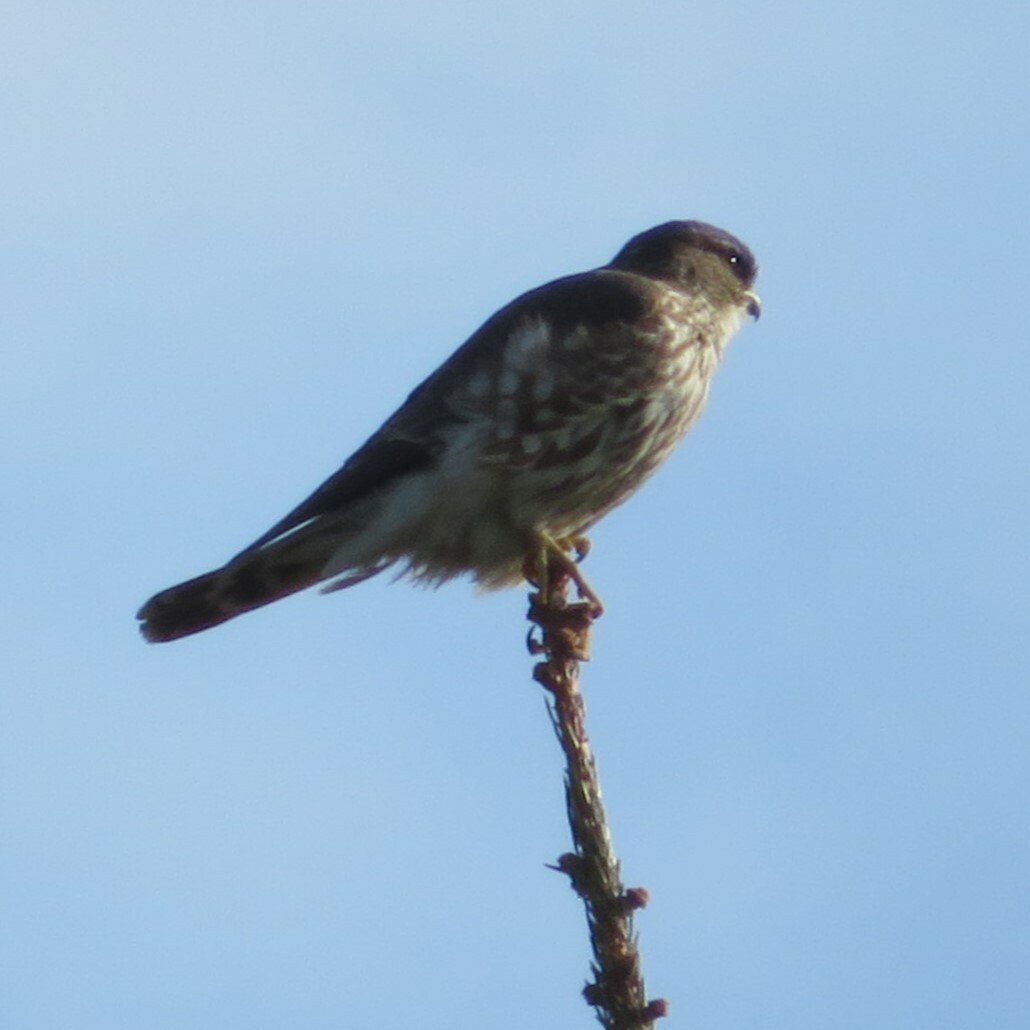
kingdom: Animalia
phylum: Chordata
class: Aves
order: Falconiformes
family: Falconidae
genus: Falco
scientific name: Falco columbarius
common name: Merlin
